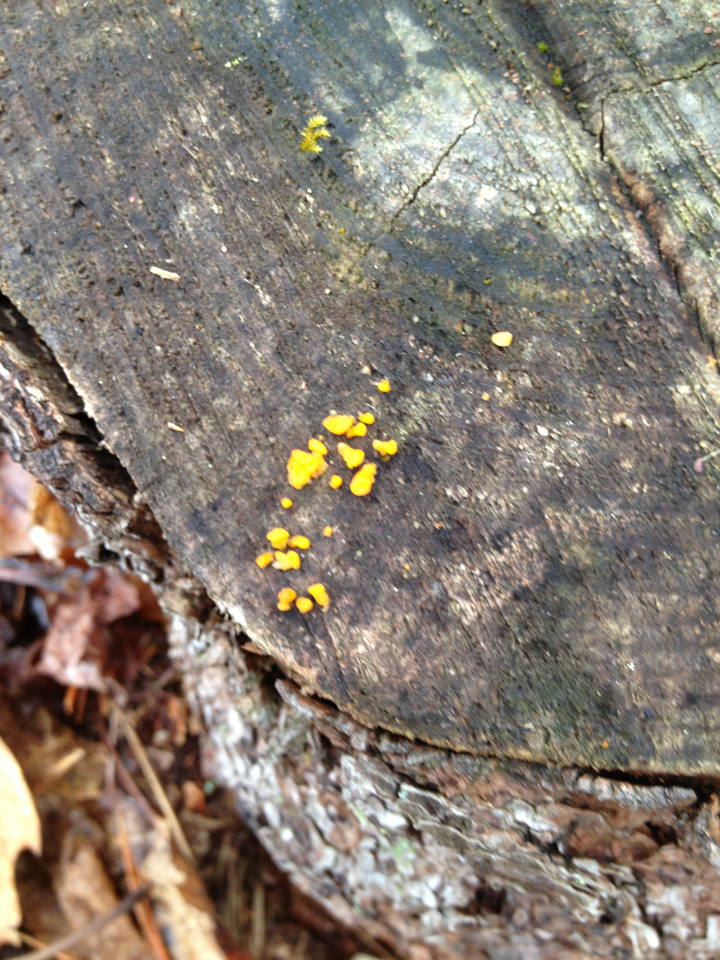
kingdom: Fungi
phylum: Basidiomycota
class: Tremellomycetes
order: Tremellales
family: Tremellaceae
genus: Tremella
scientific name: Tremella mesenterica
